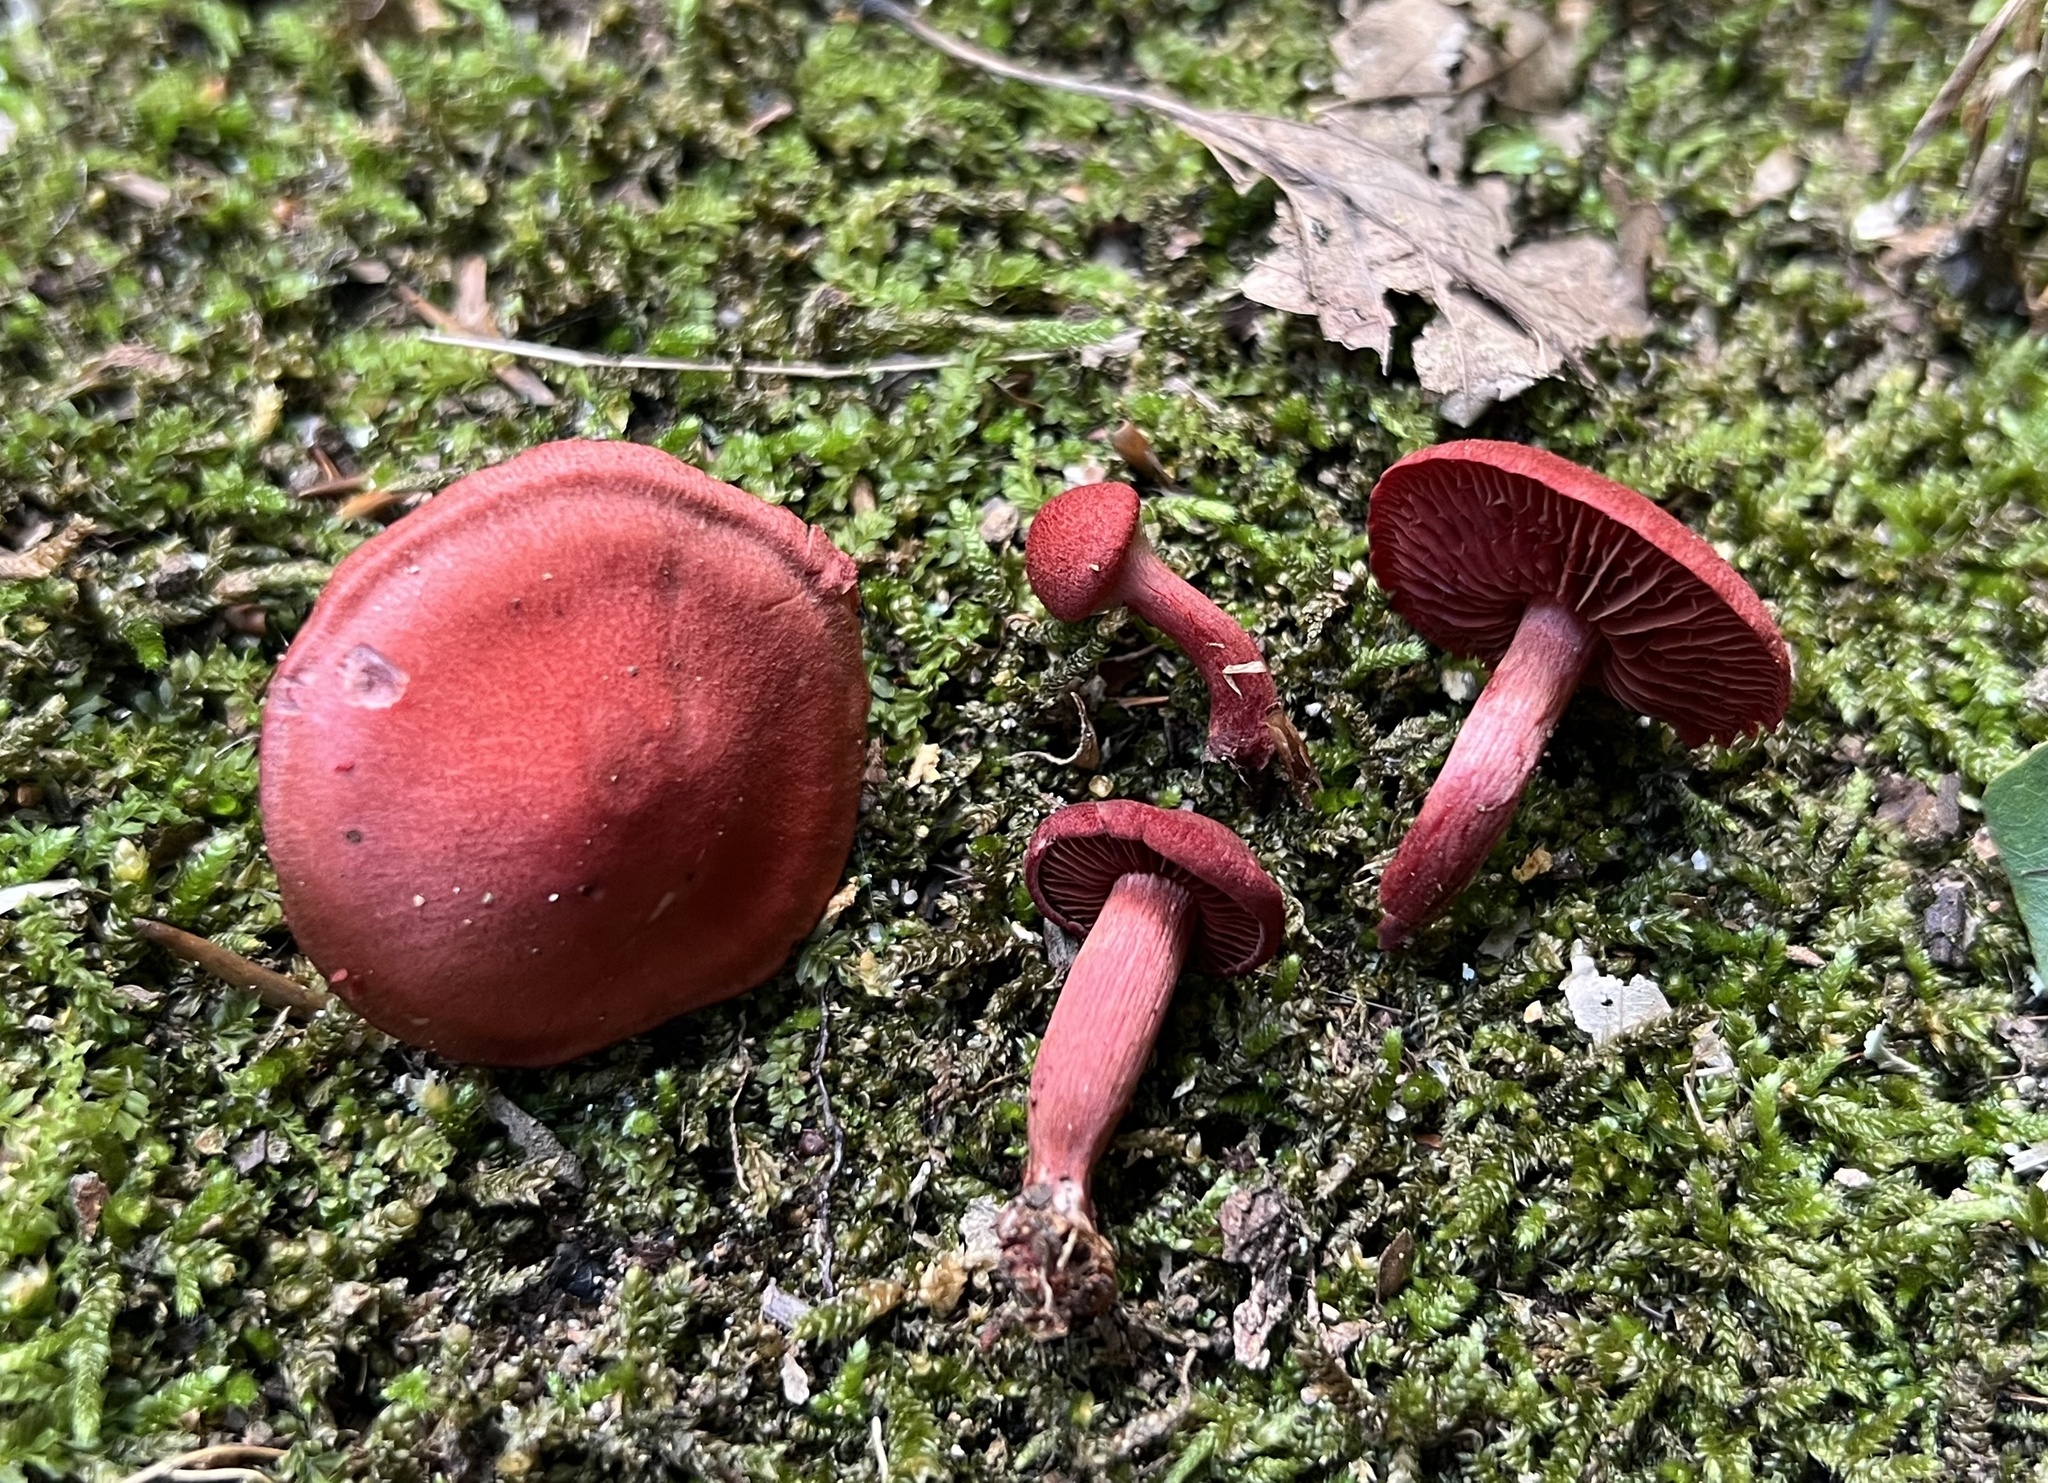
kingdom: Fungi
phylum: Basidiomycota
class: Agaricomycetes
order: Agaricales
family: Cortinariaceae
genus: Cortinarius
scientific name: Cortinarius marylandensis
